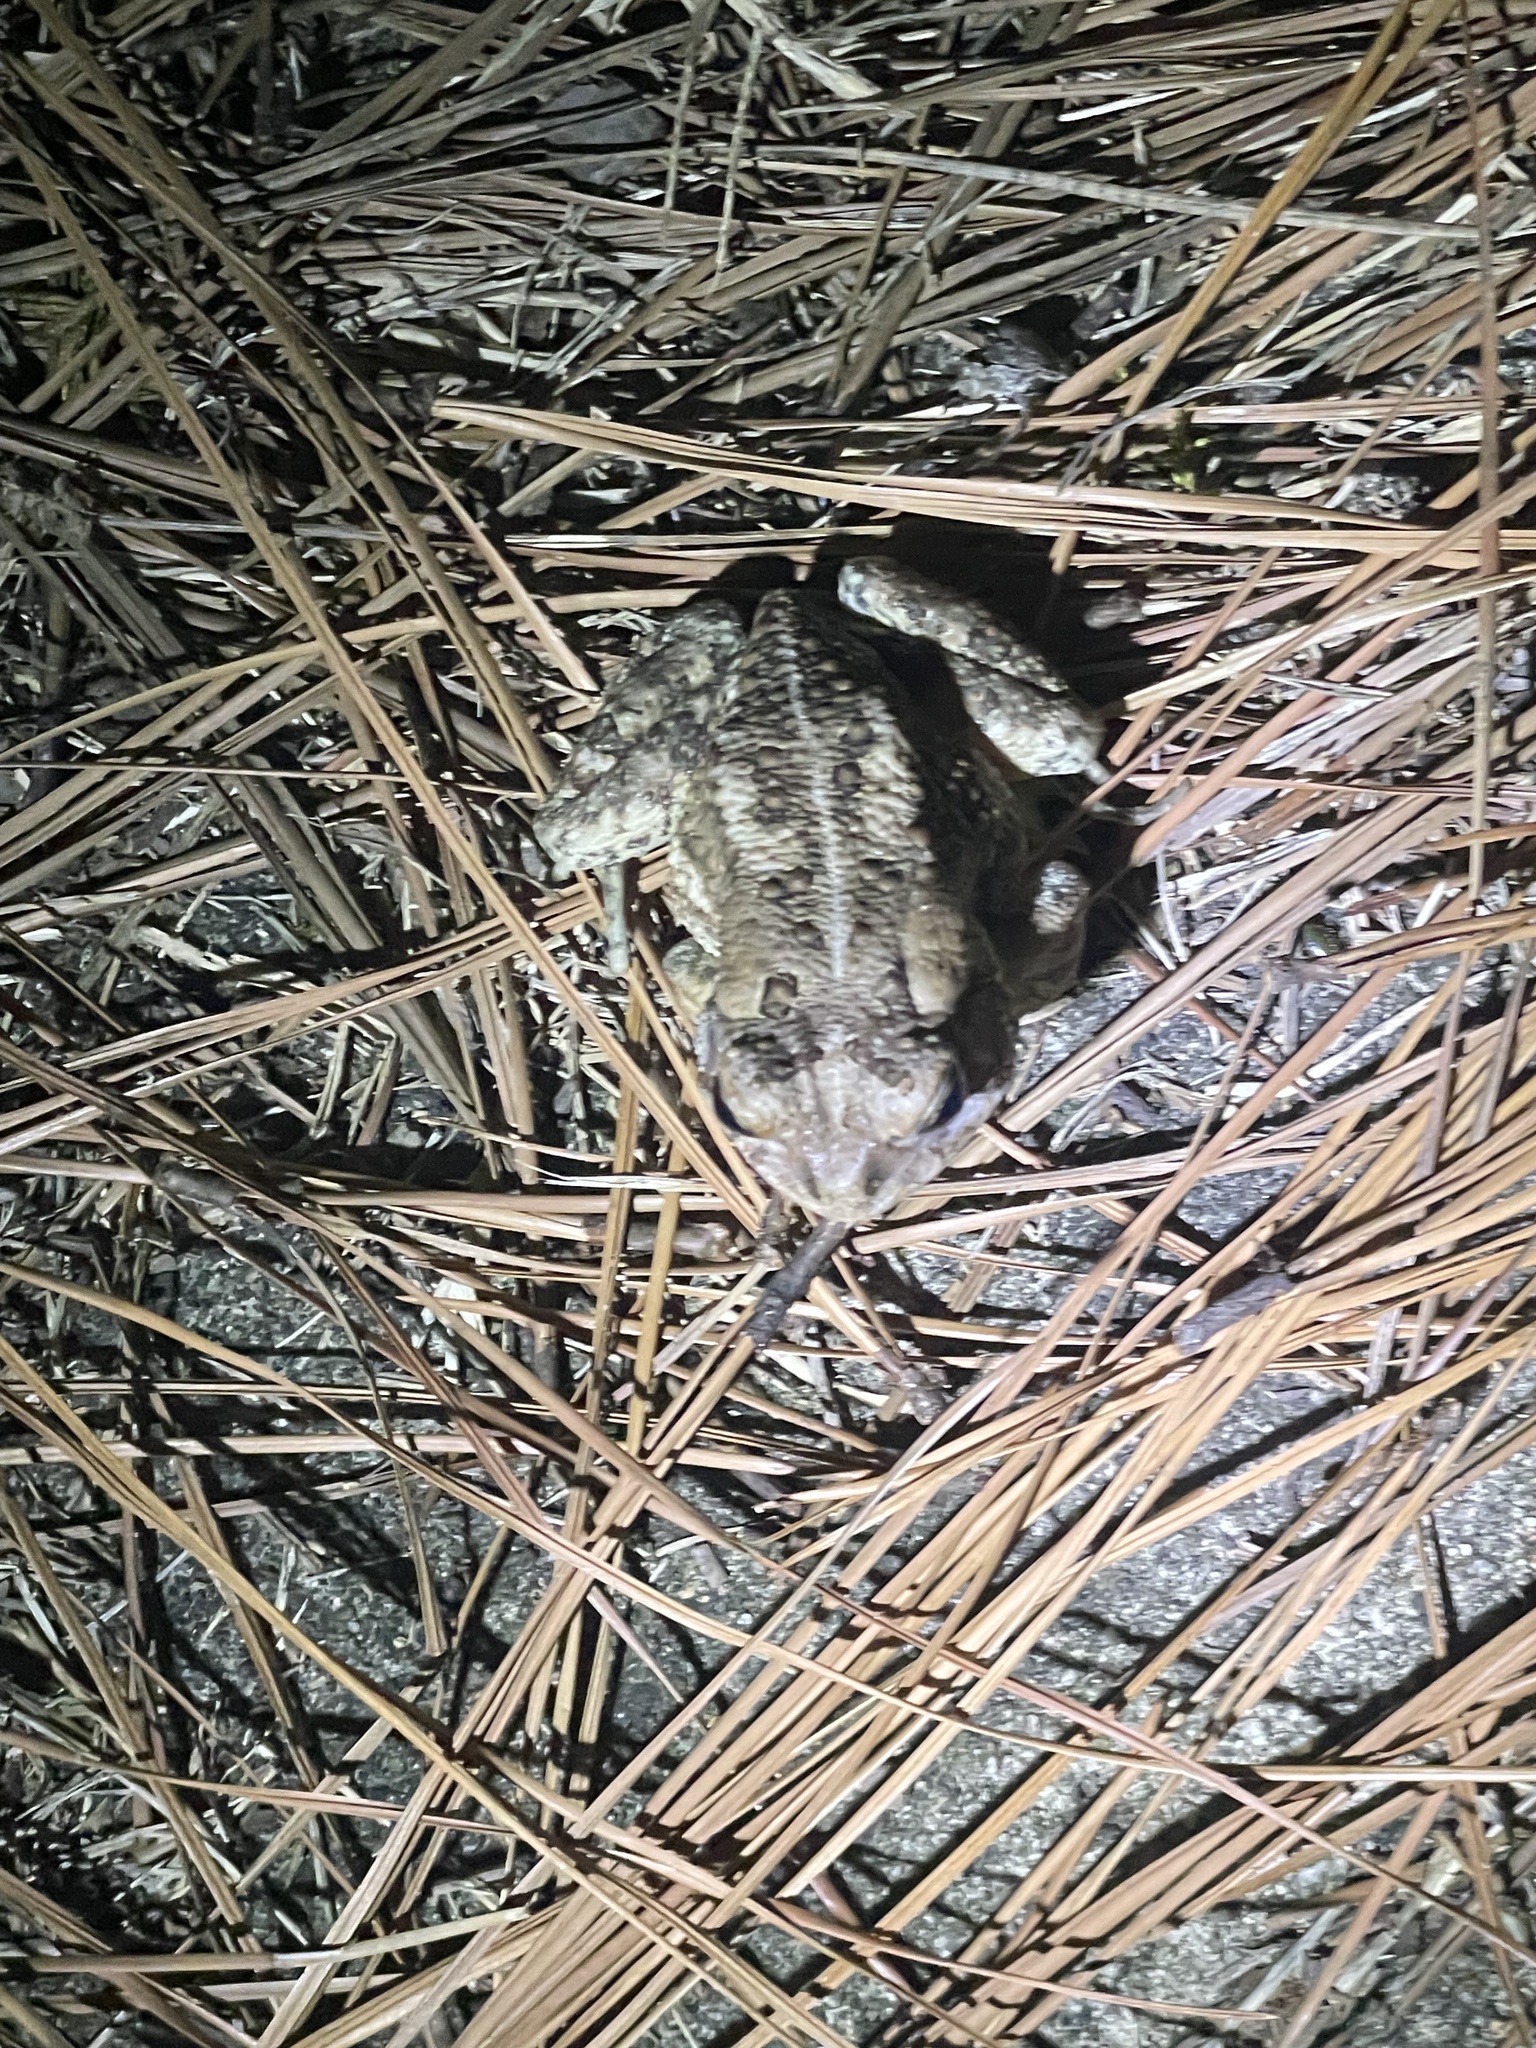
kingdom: Animalia
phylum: Chordata
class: Amphibia
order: Anura
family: Bufonidae
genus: Anaxyrus
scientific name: Anaxyrus fowleri
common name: Fowler's toad
